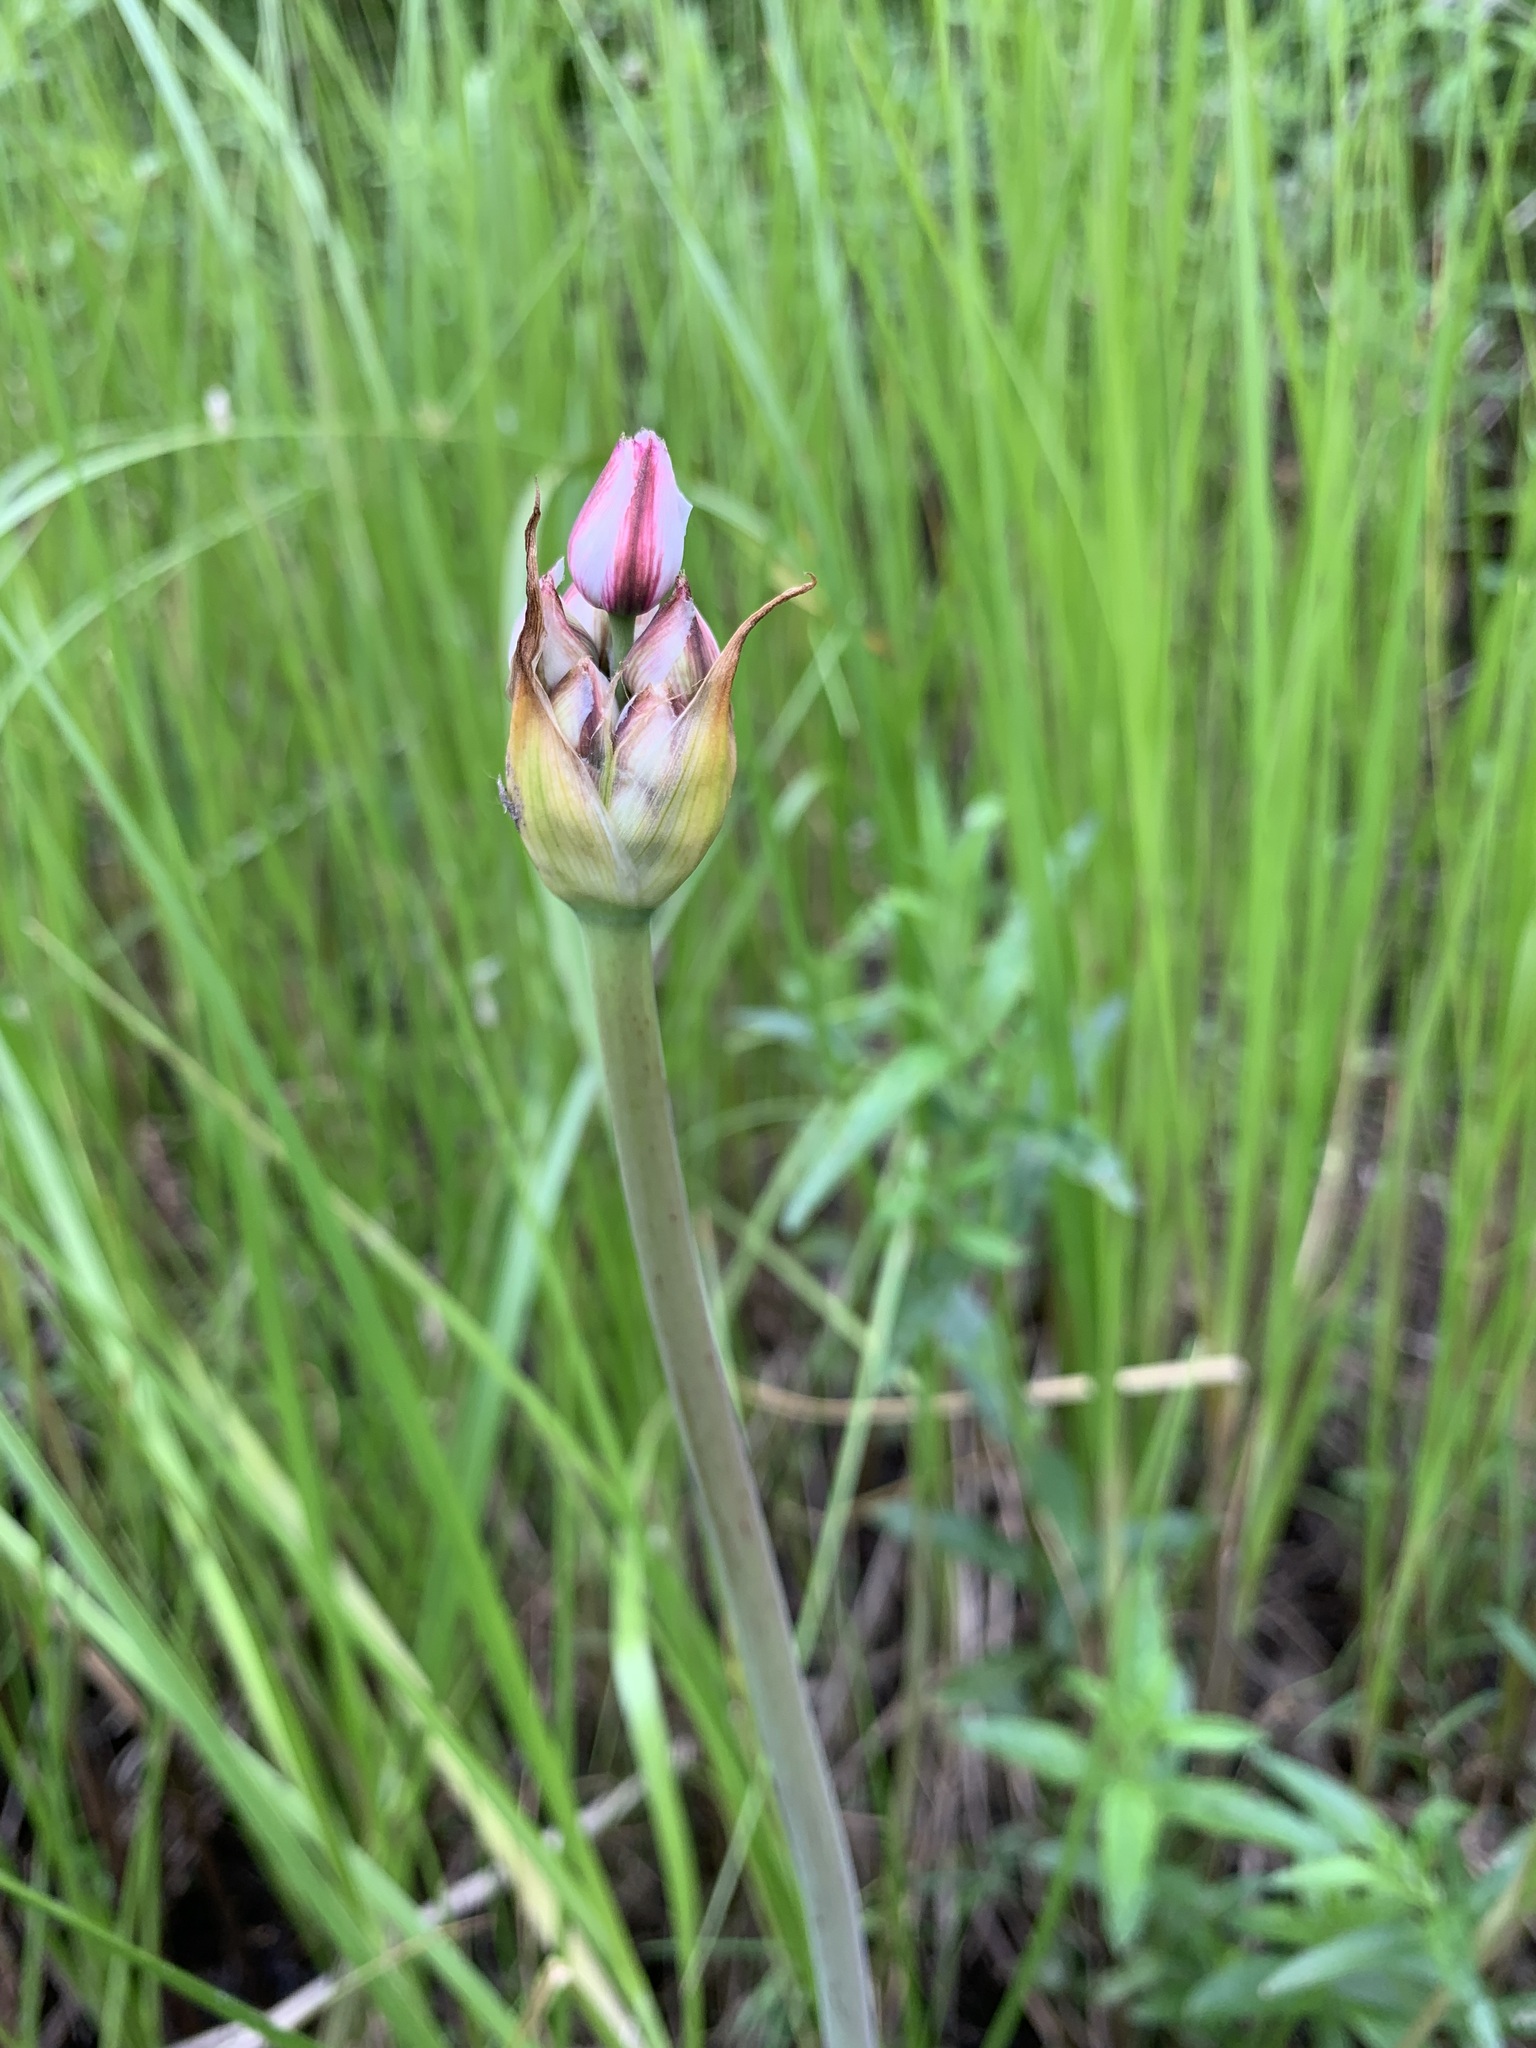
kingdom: Plantae
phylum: Tracheophyta
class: Liliopsida
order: Alismatales
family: Butomaceae
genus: Butomus
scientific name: Butomus umbellatus
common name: Flowering-rush
